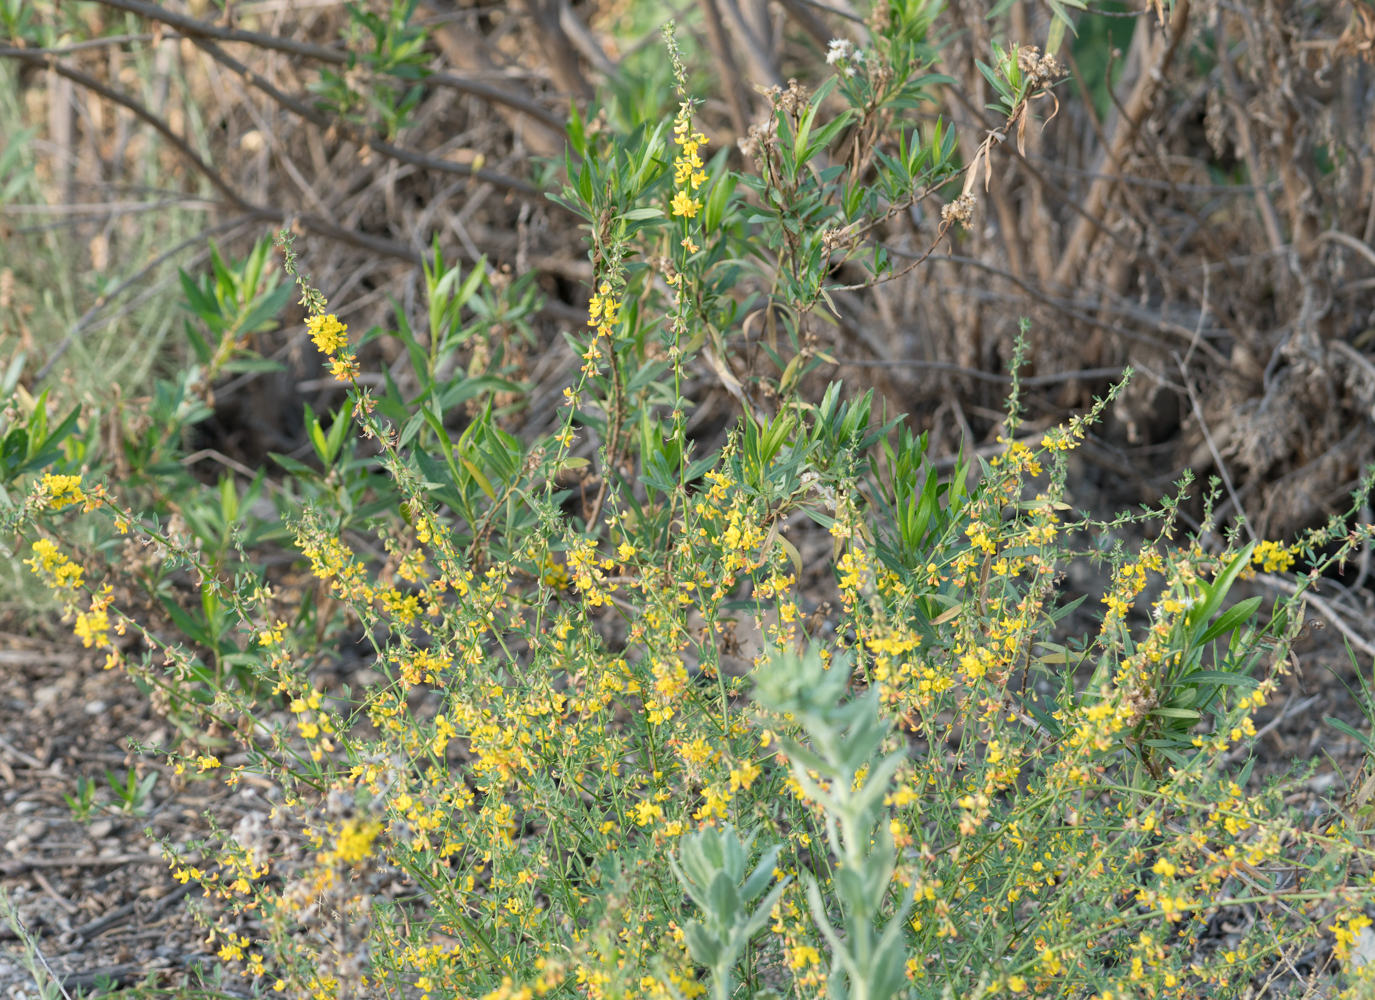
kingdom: Plantae
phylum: Tracheophyta
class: Magnoliopsida
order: Fabales
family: Fabaceae
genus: Acmispon
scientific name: Acmispon glaber
